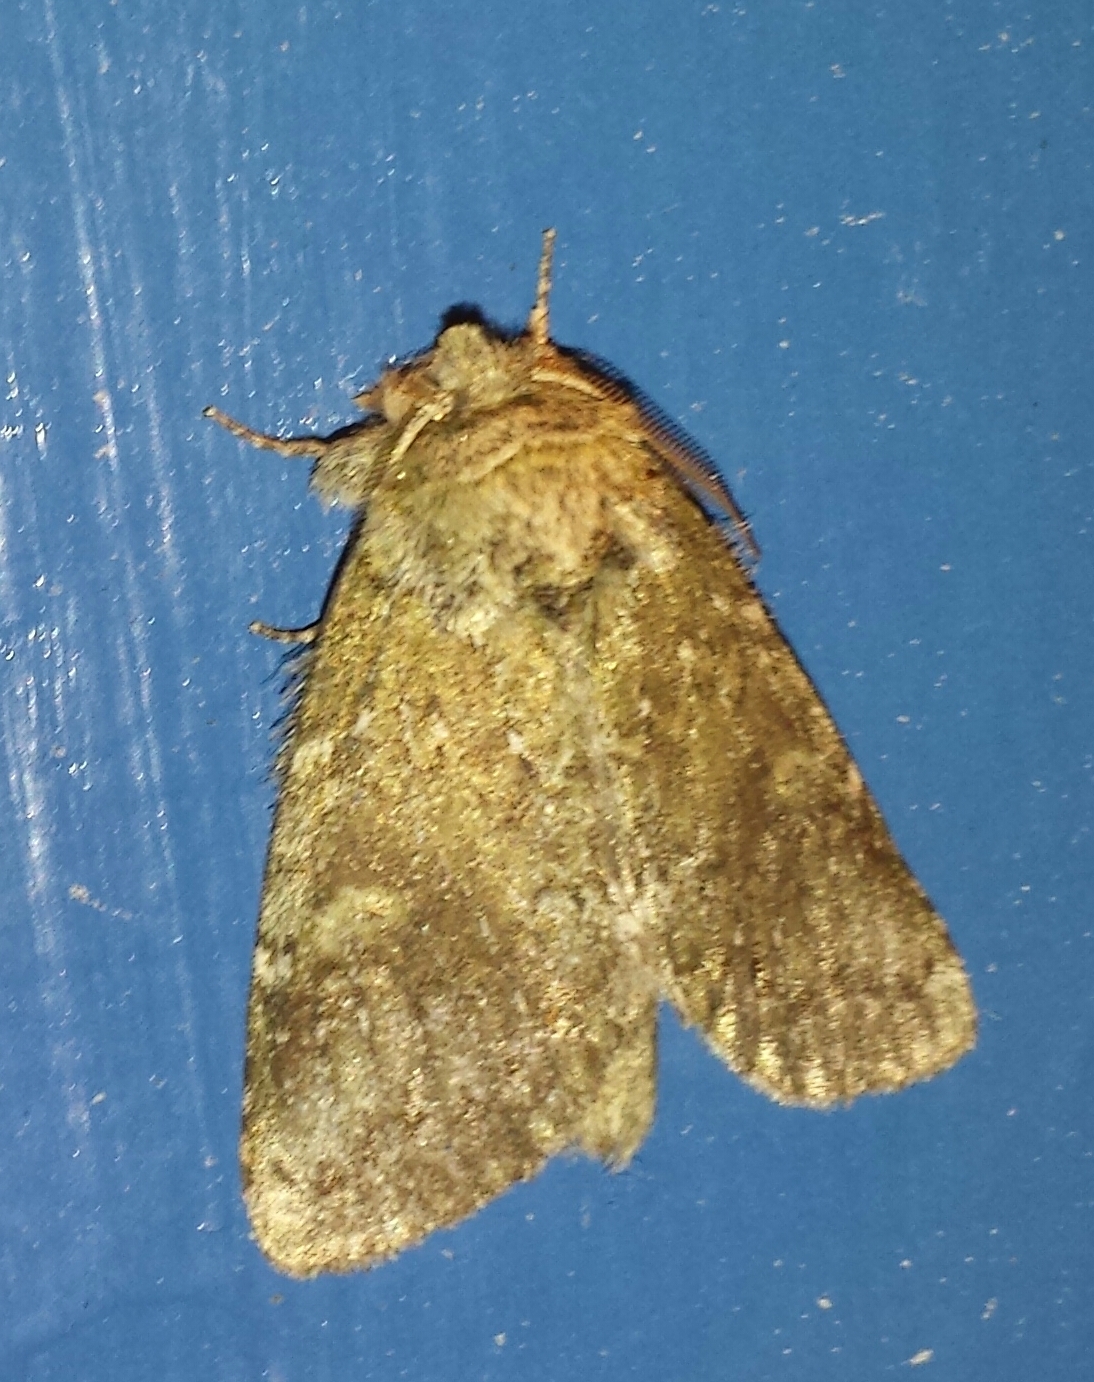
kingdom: Animalia
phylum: Arthropoda
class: Insecta
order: Lepidoptera
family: Notodontidae
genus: Disphragis
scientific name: Disphragis Cecrita guttivitta
